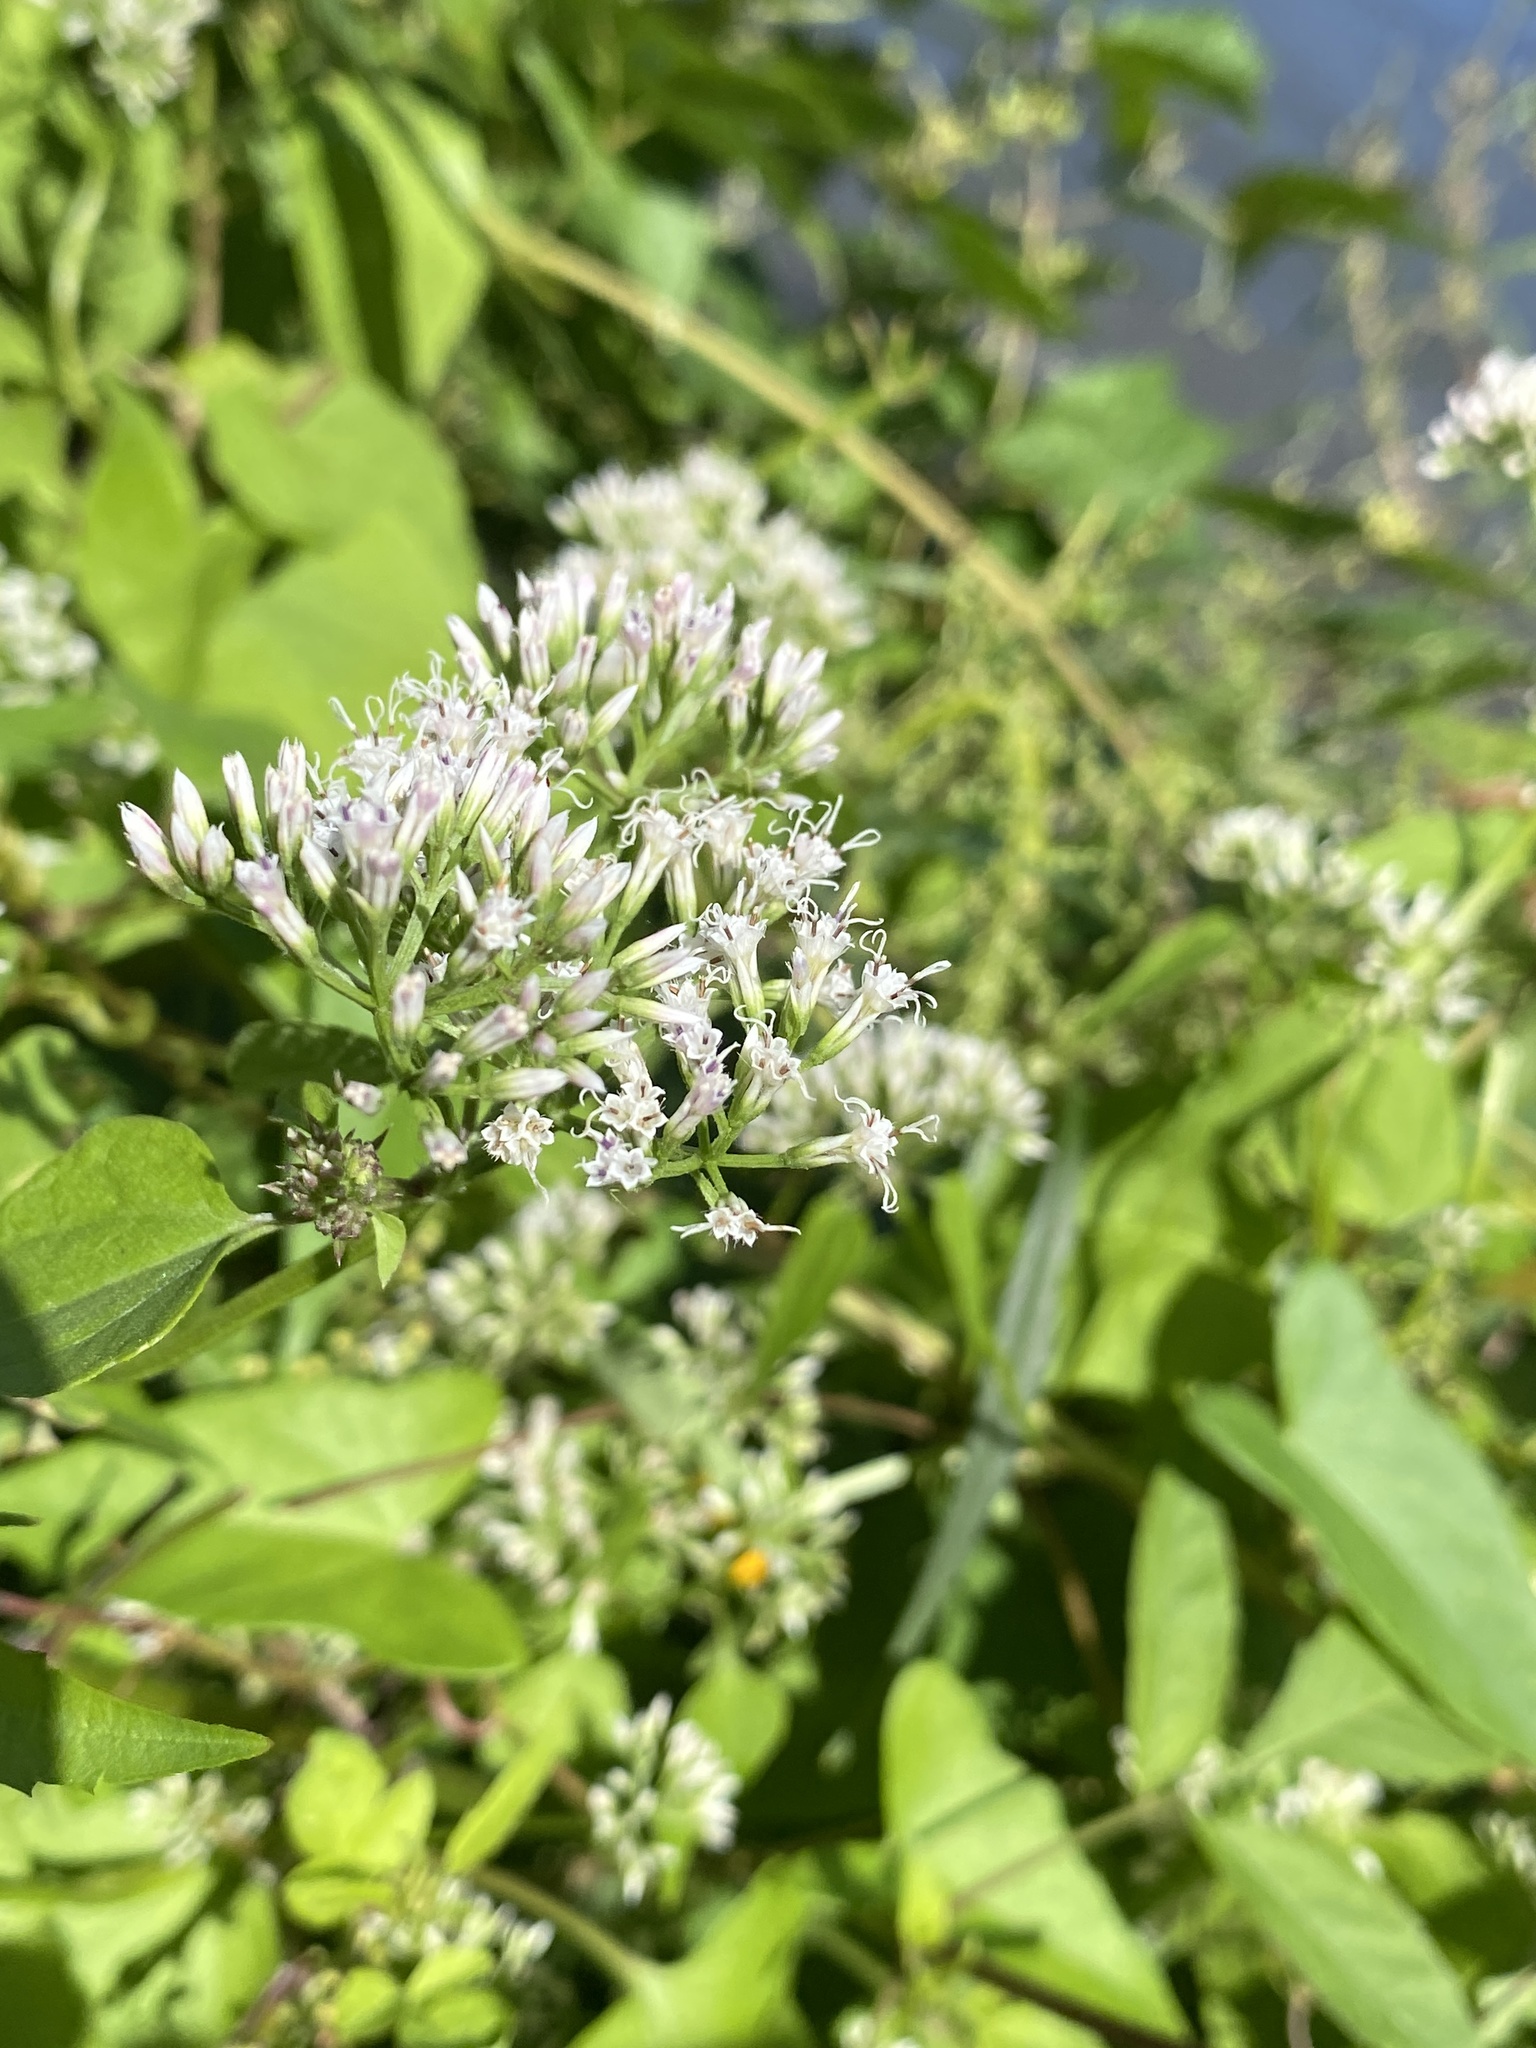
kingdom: Plantae
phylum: Tracheophyta
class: Magnoliopsida
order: Asterales
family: Asteraceae
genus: Mikania
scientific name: Mikania scandens
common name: Climbing hempvine
